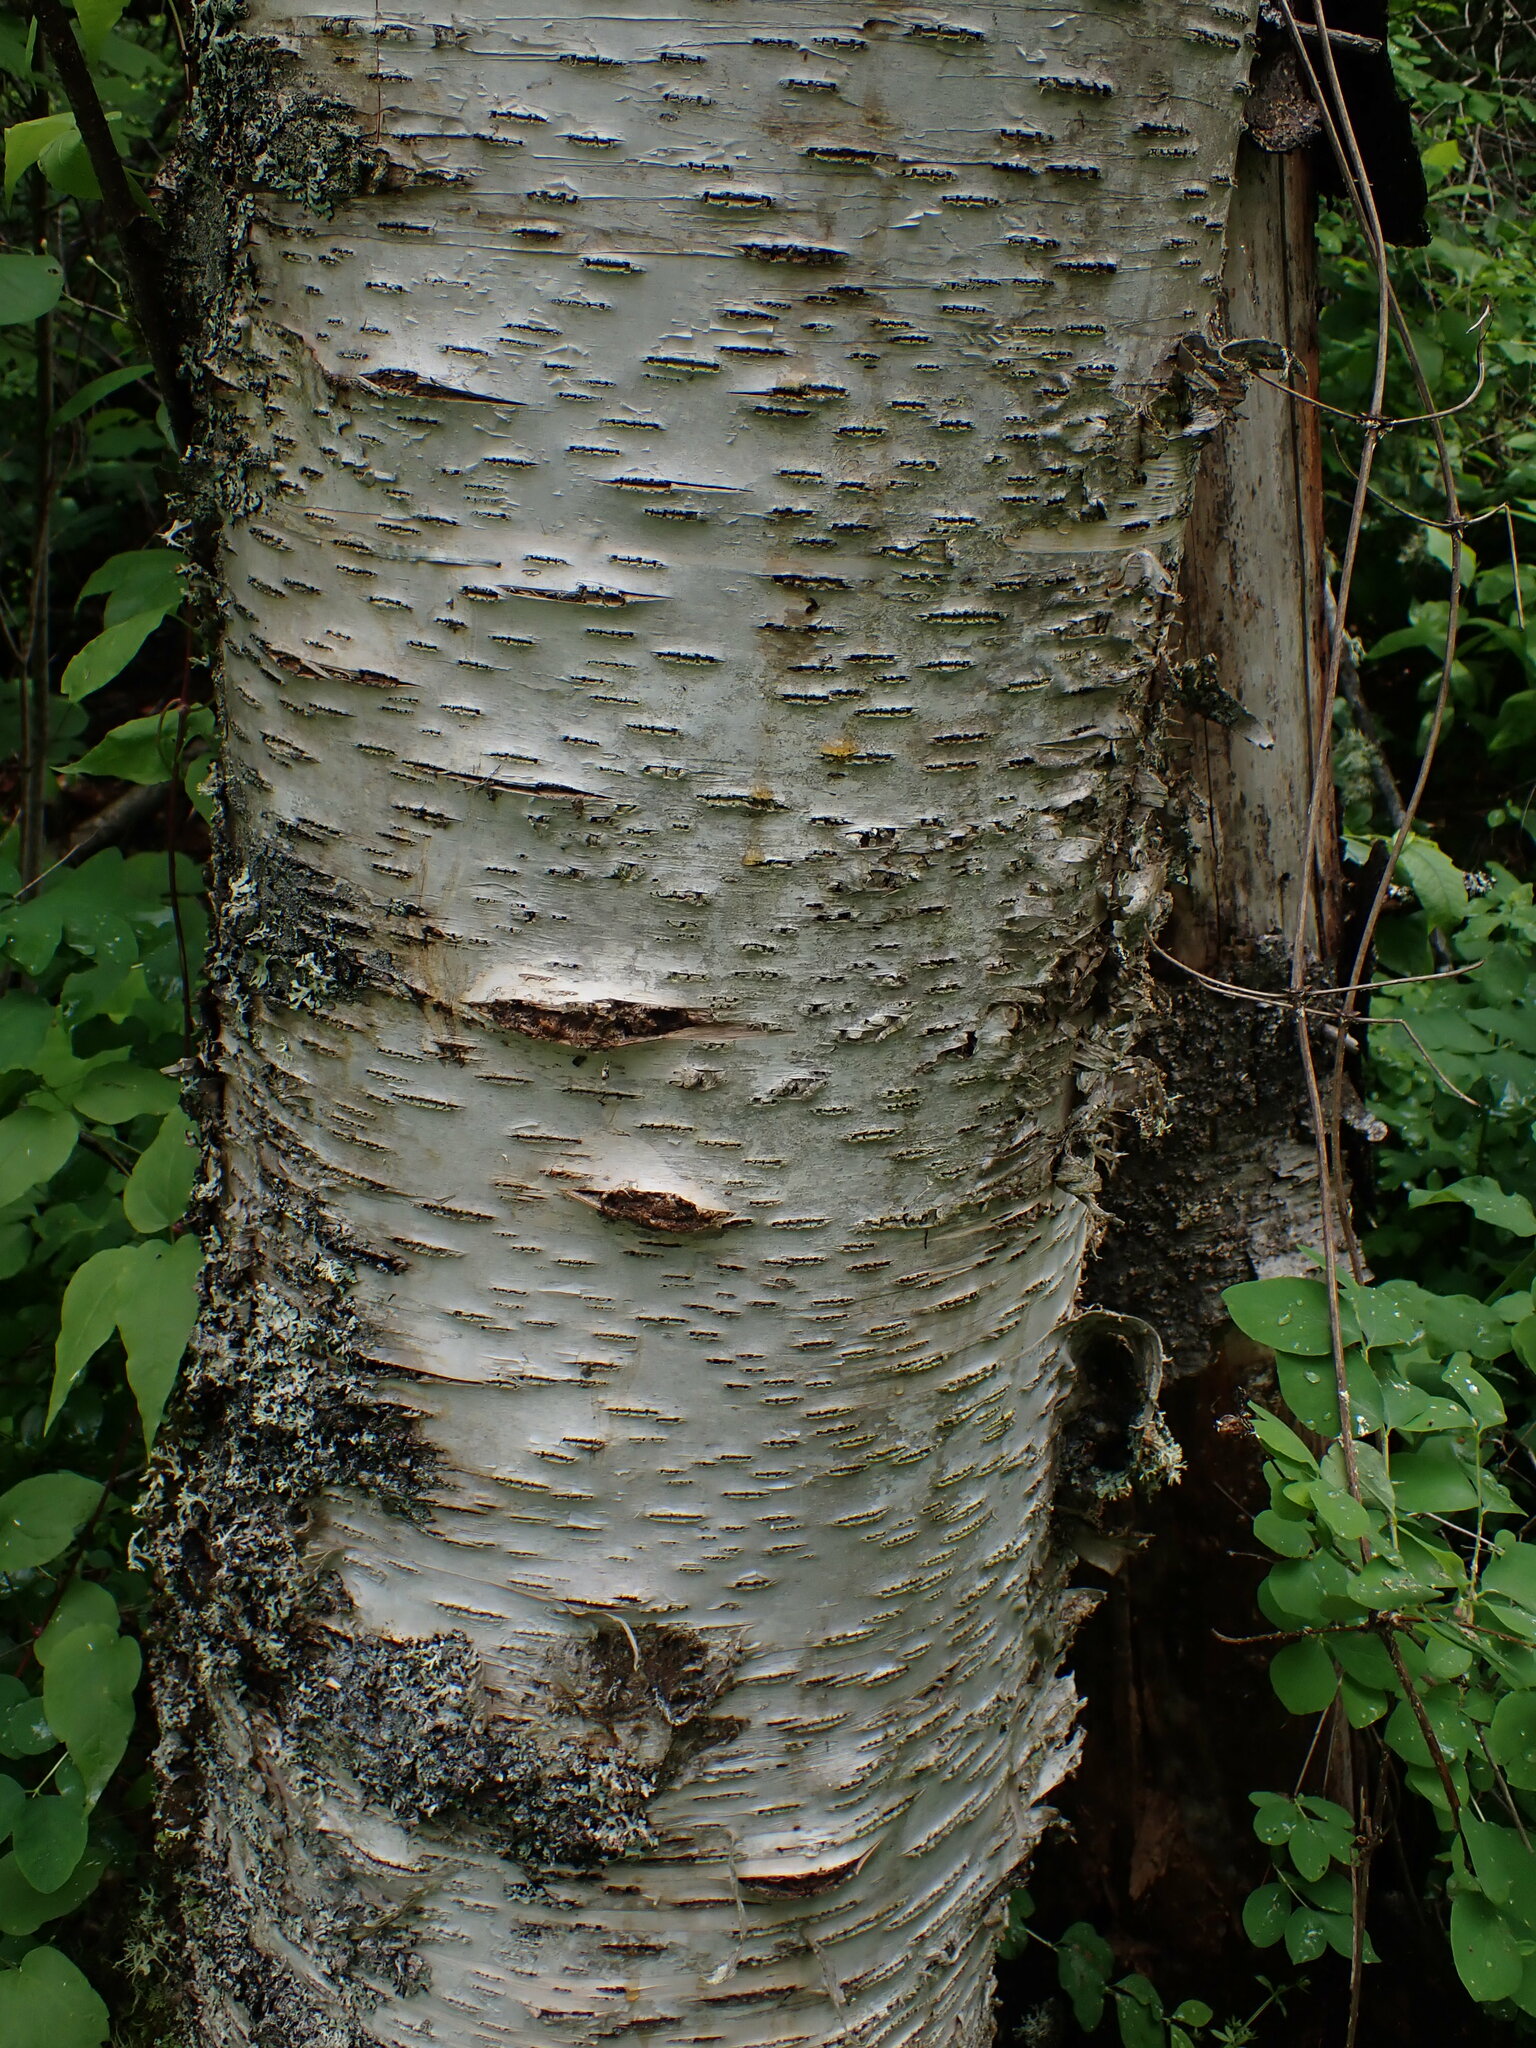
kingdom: Plantae
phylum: Tracheophyta
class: Magnoliopsida
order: Fagales
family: Betulaceae
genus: Betula
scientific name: Betula papyrifera
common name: Paper birch
